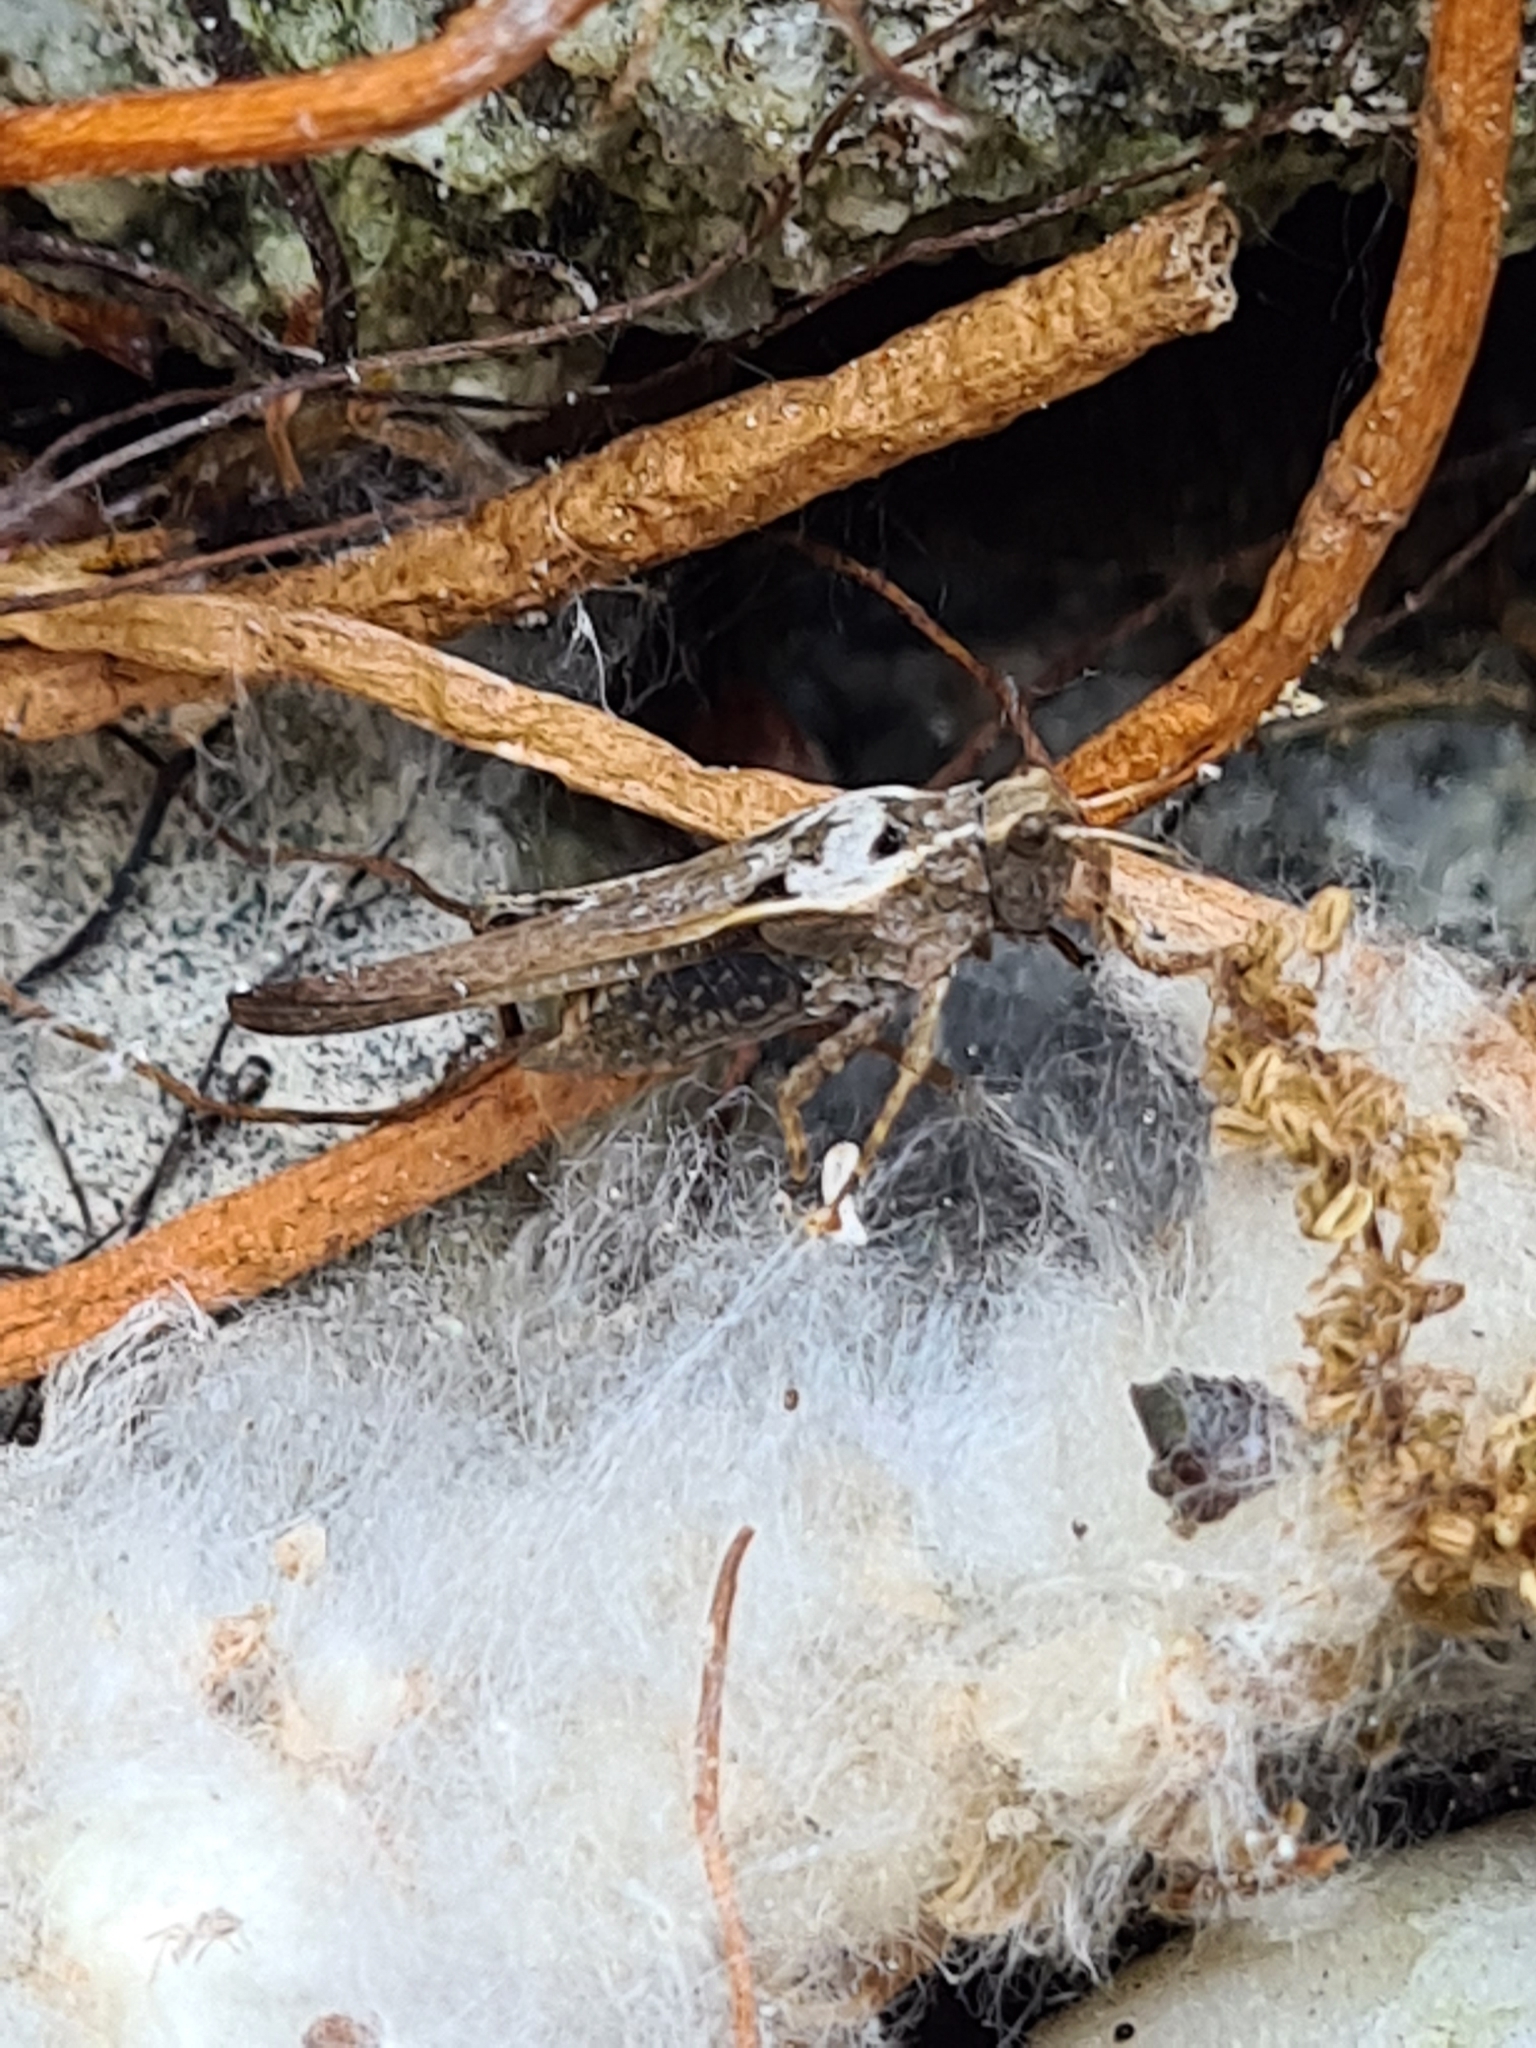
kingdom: Animalia
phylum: Arthropoda
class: Insecta
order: Orthoptera
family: Tetrigidae
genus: Tetrix
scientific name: Tetrix subulata
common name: Slender ground-hopper
